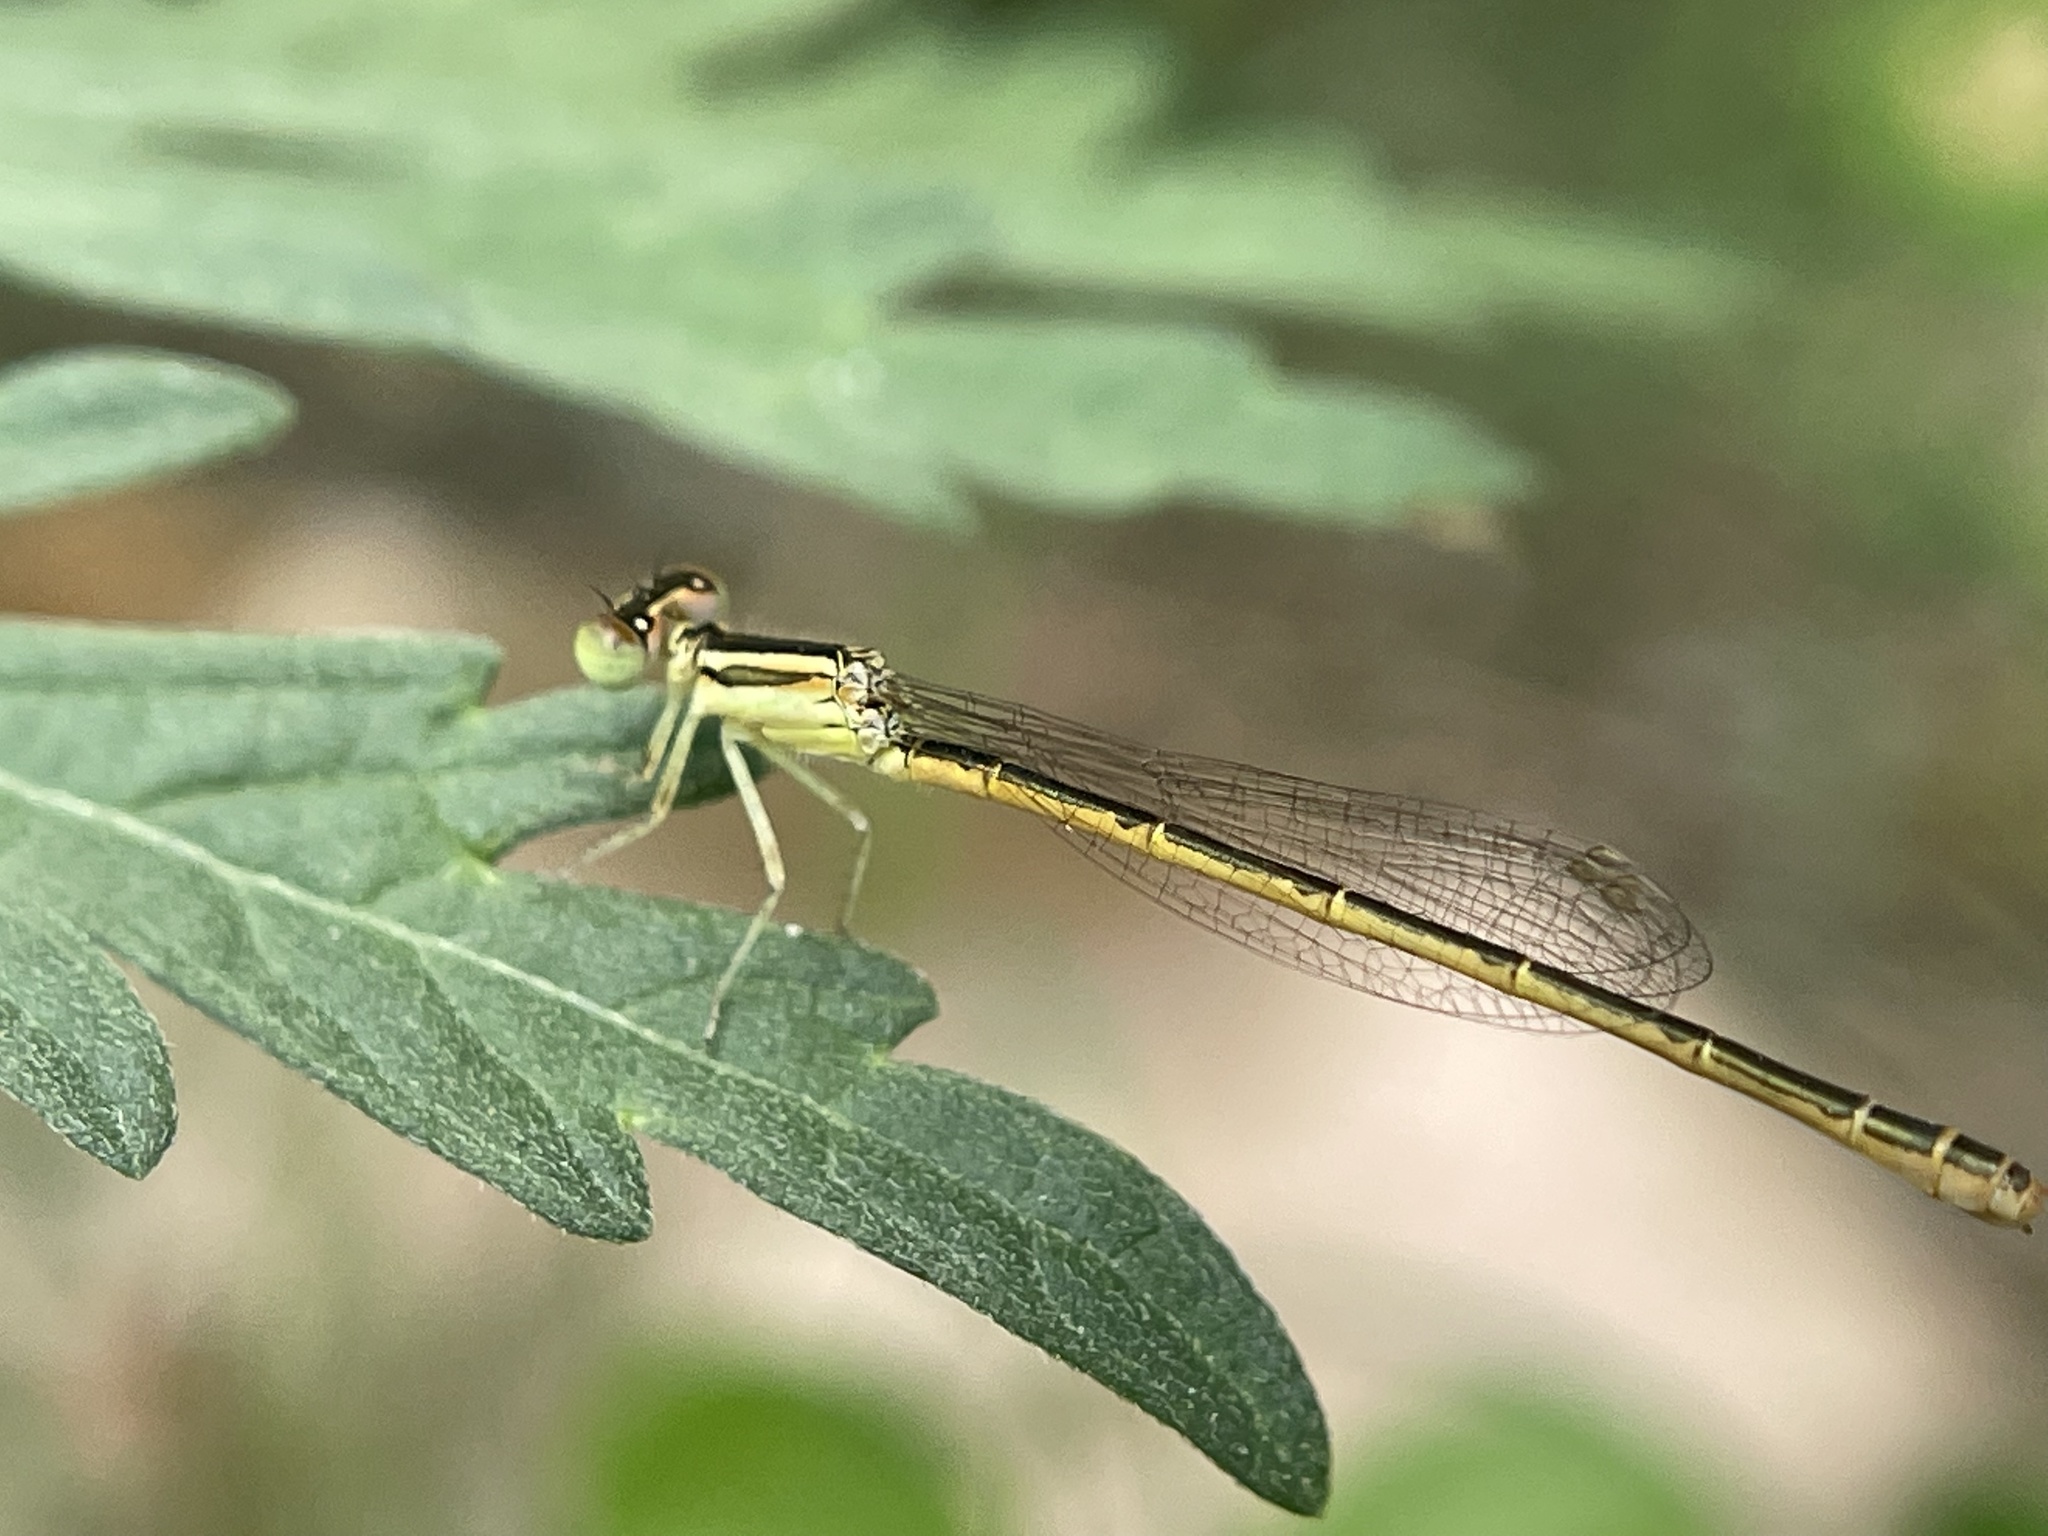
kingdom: Animalia
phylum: Arthropoda
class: Insecta
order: Odonata
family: Coenagrionidae
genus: Ischnura
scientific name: Ischnura rubilio
